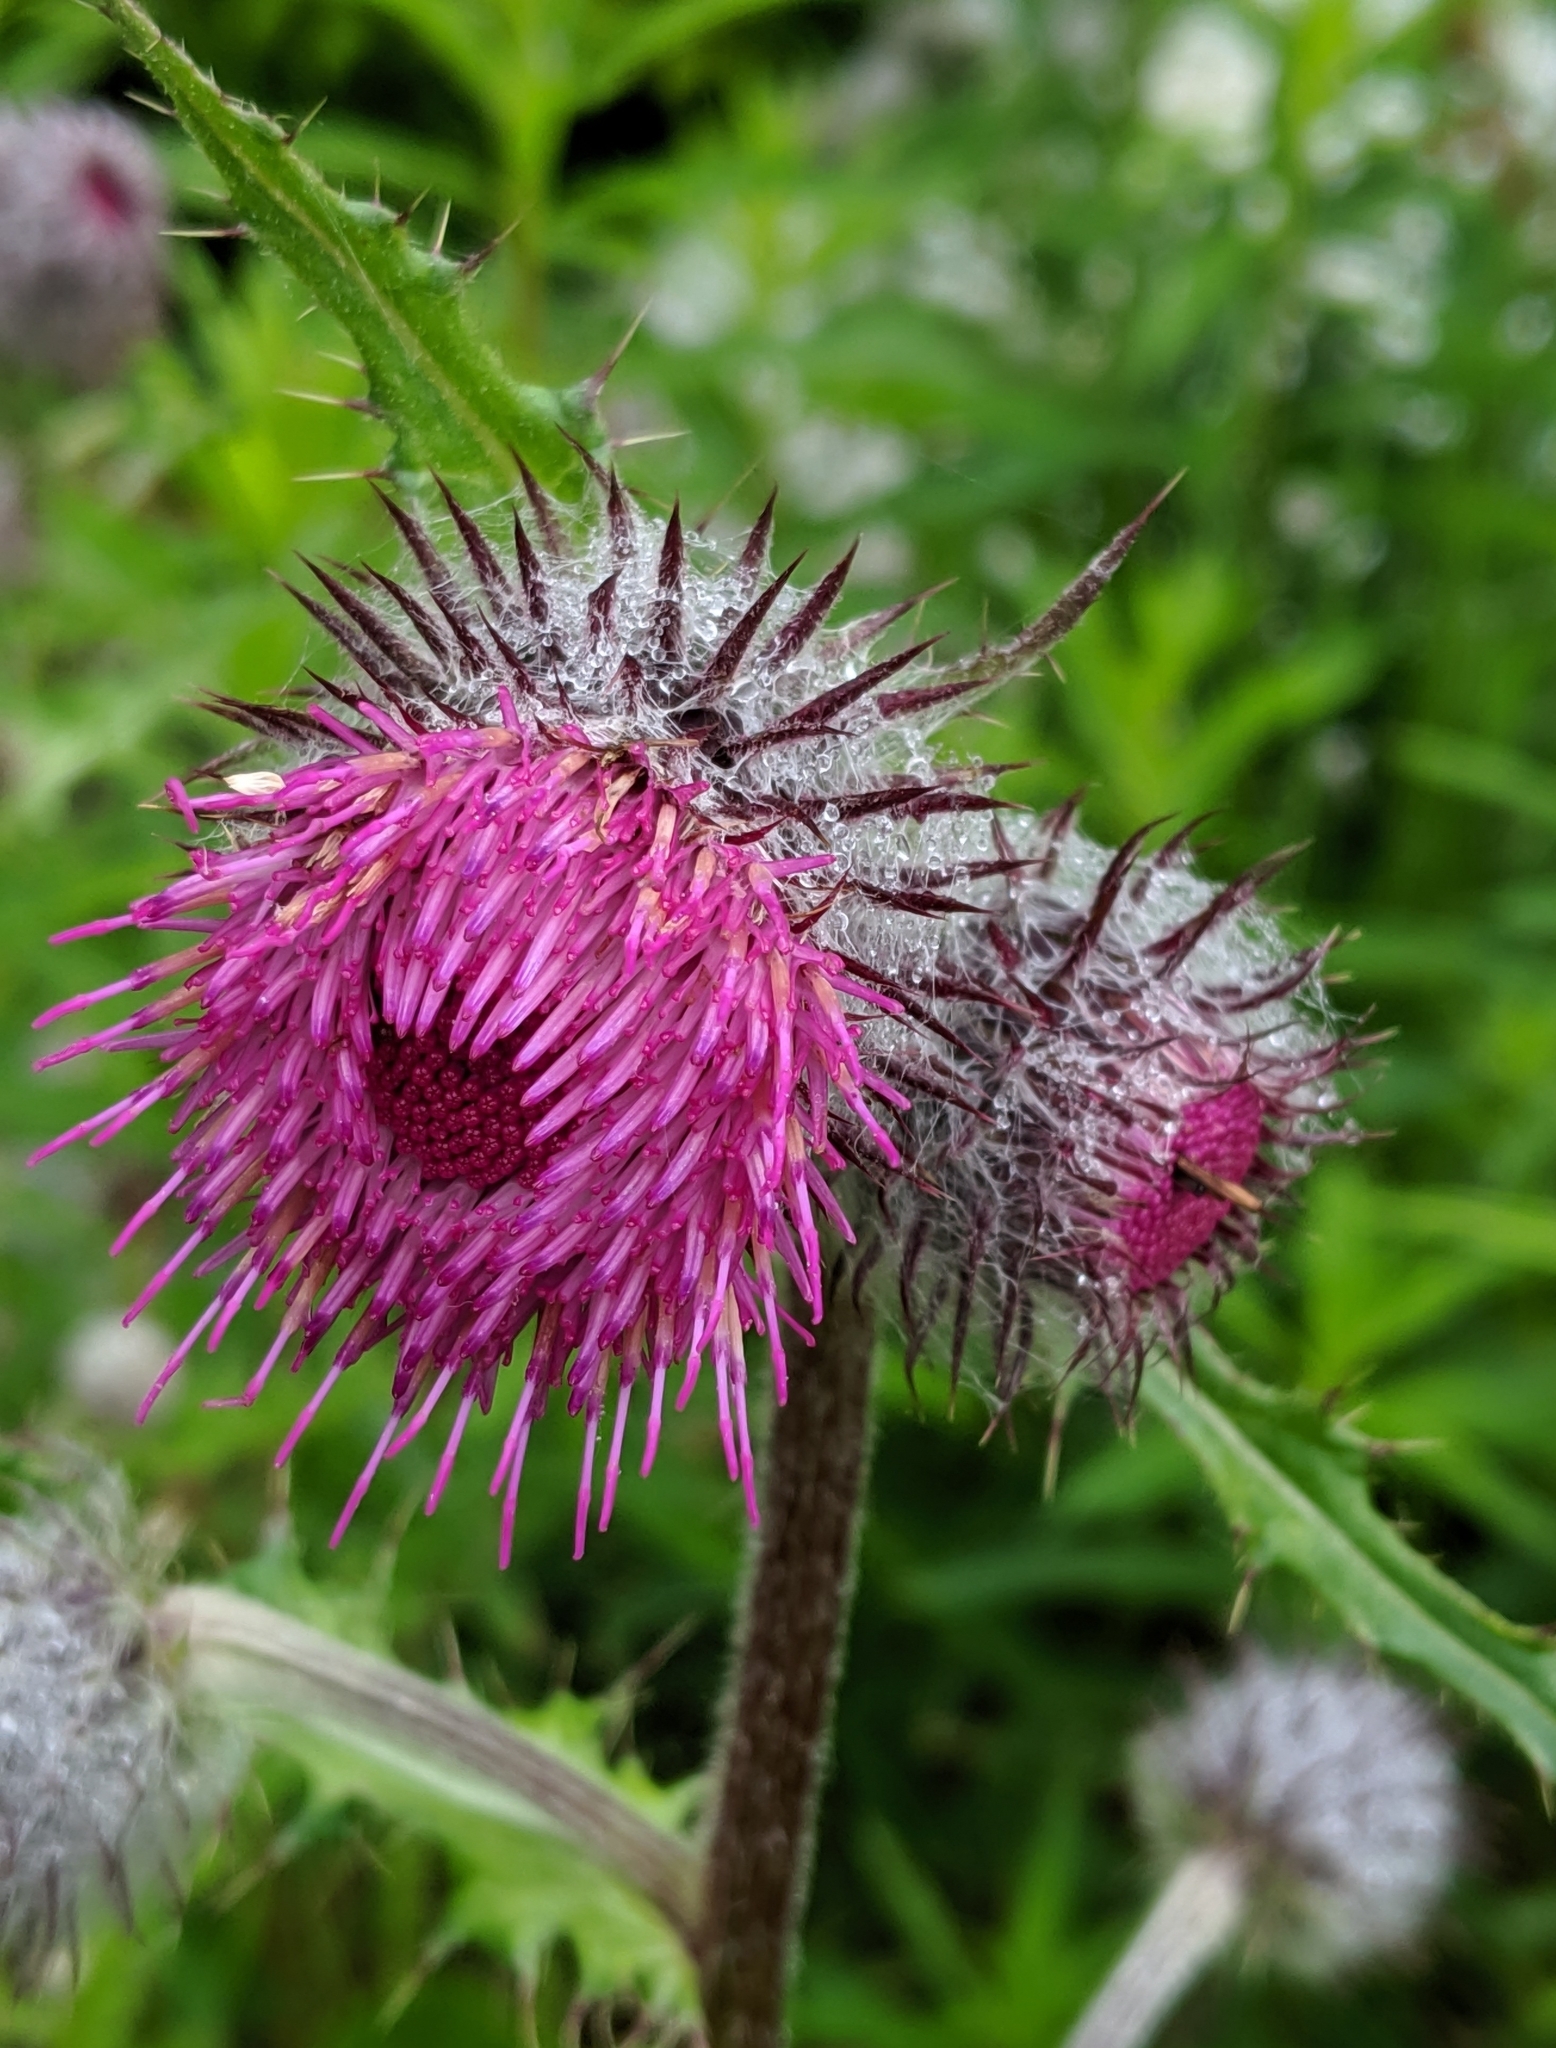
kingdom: Plantae
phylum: Tracheophyta
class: Magnoliopsida
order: Asterales
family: Asteraceae
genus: Cirsium
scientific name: Cirsium edule
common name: Indian thistle
